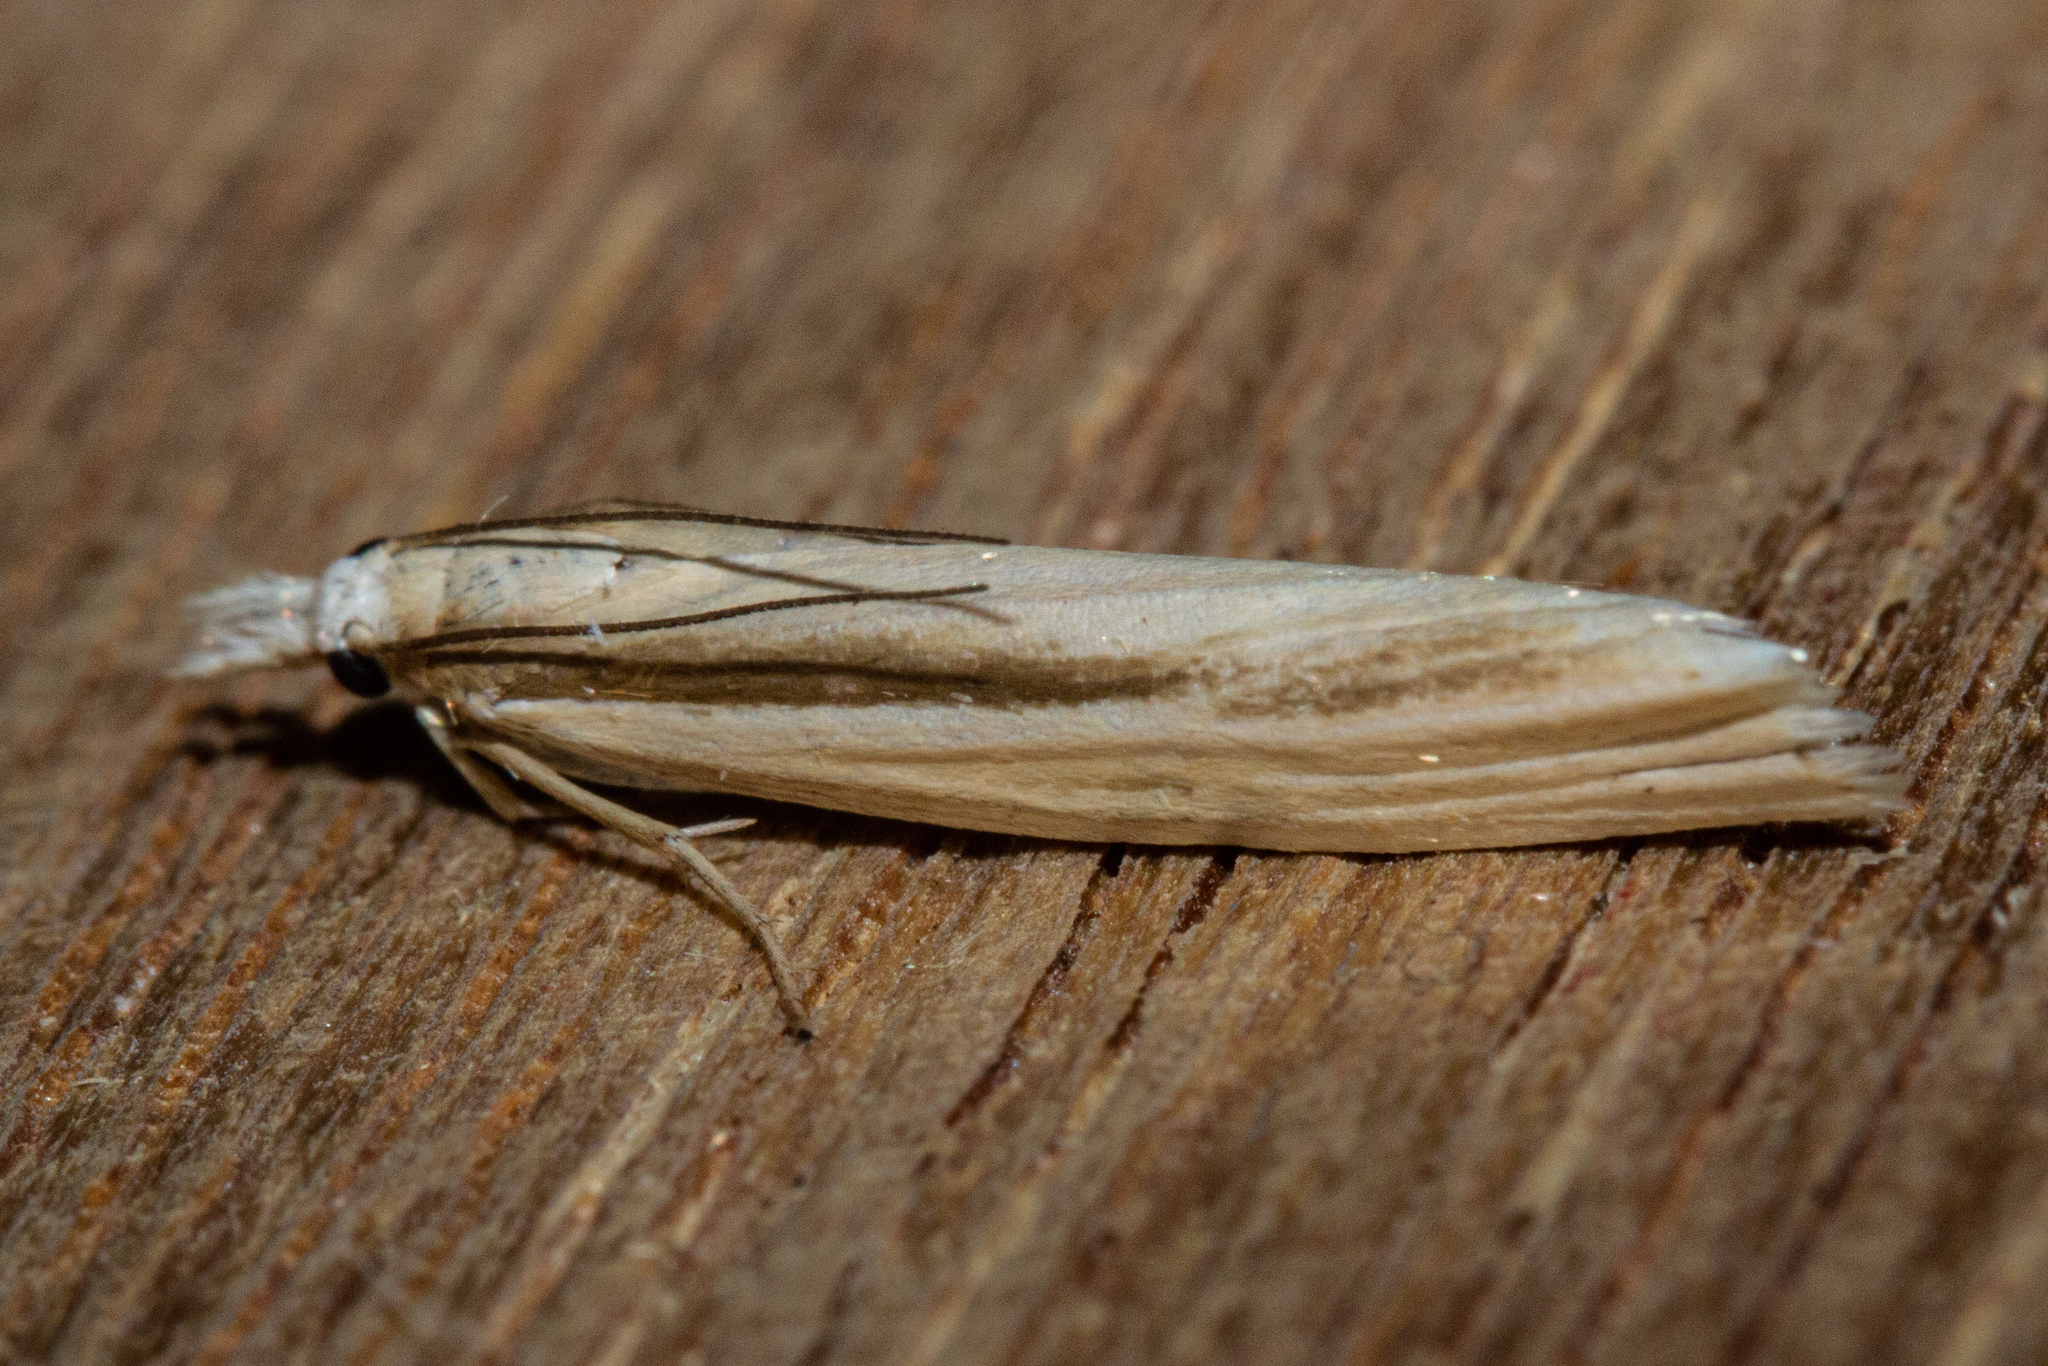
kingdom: Animalia
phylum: Arthropoda
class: Insecta
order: Lepidoptera
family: Crambidae
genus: Orocrambus
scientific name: Orocrambus ramosellus
